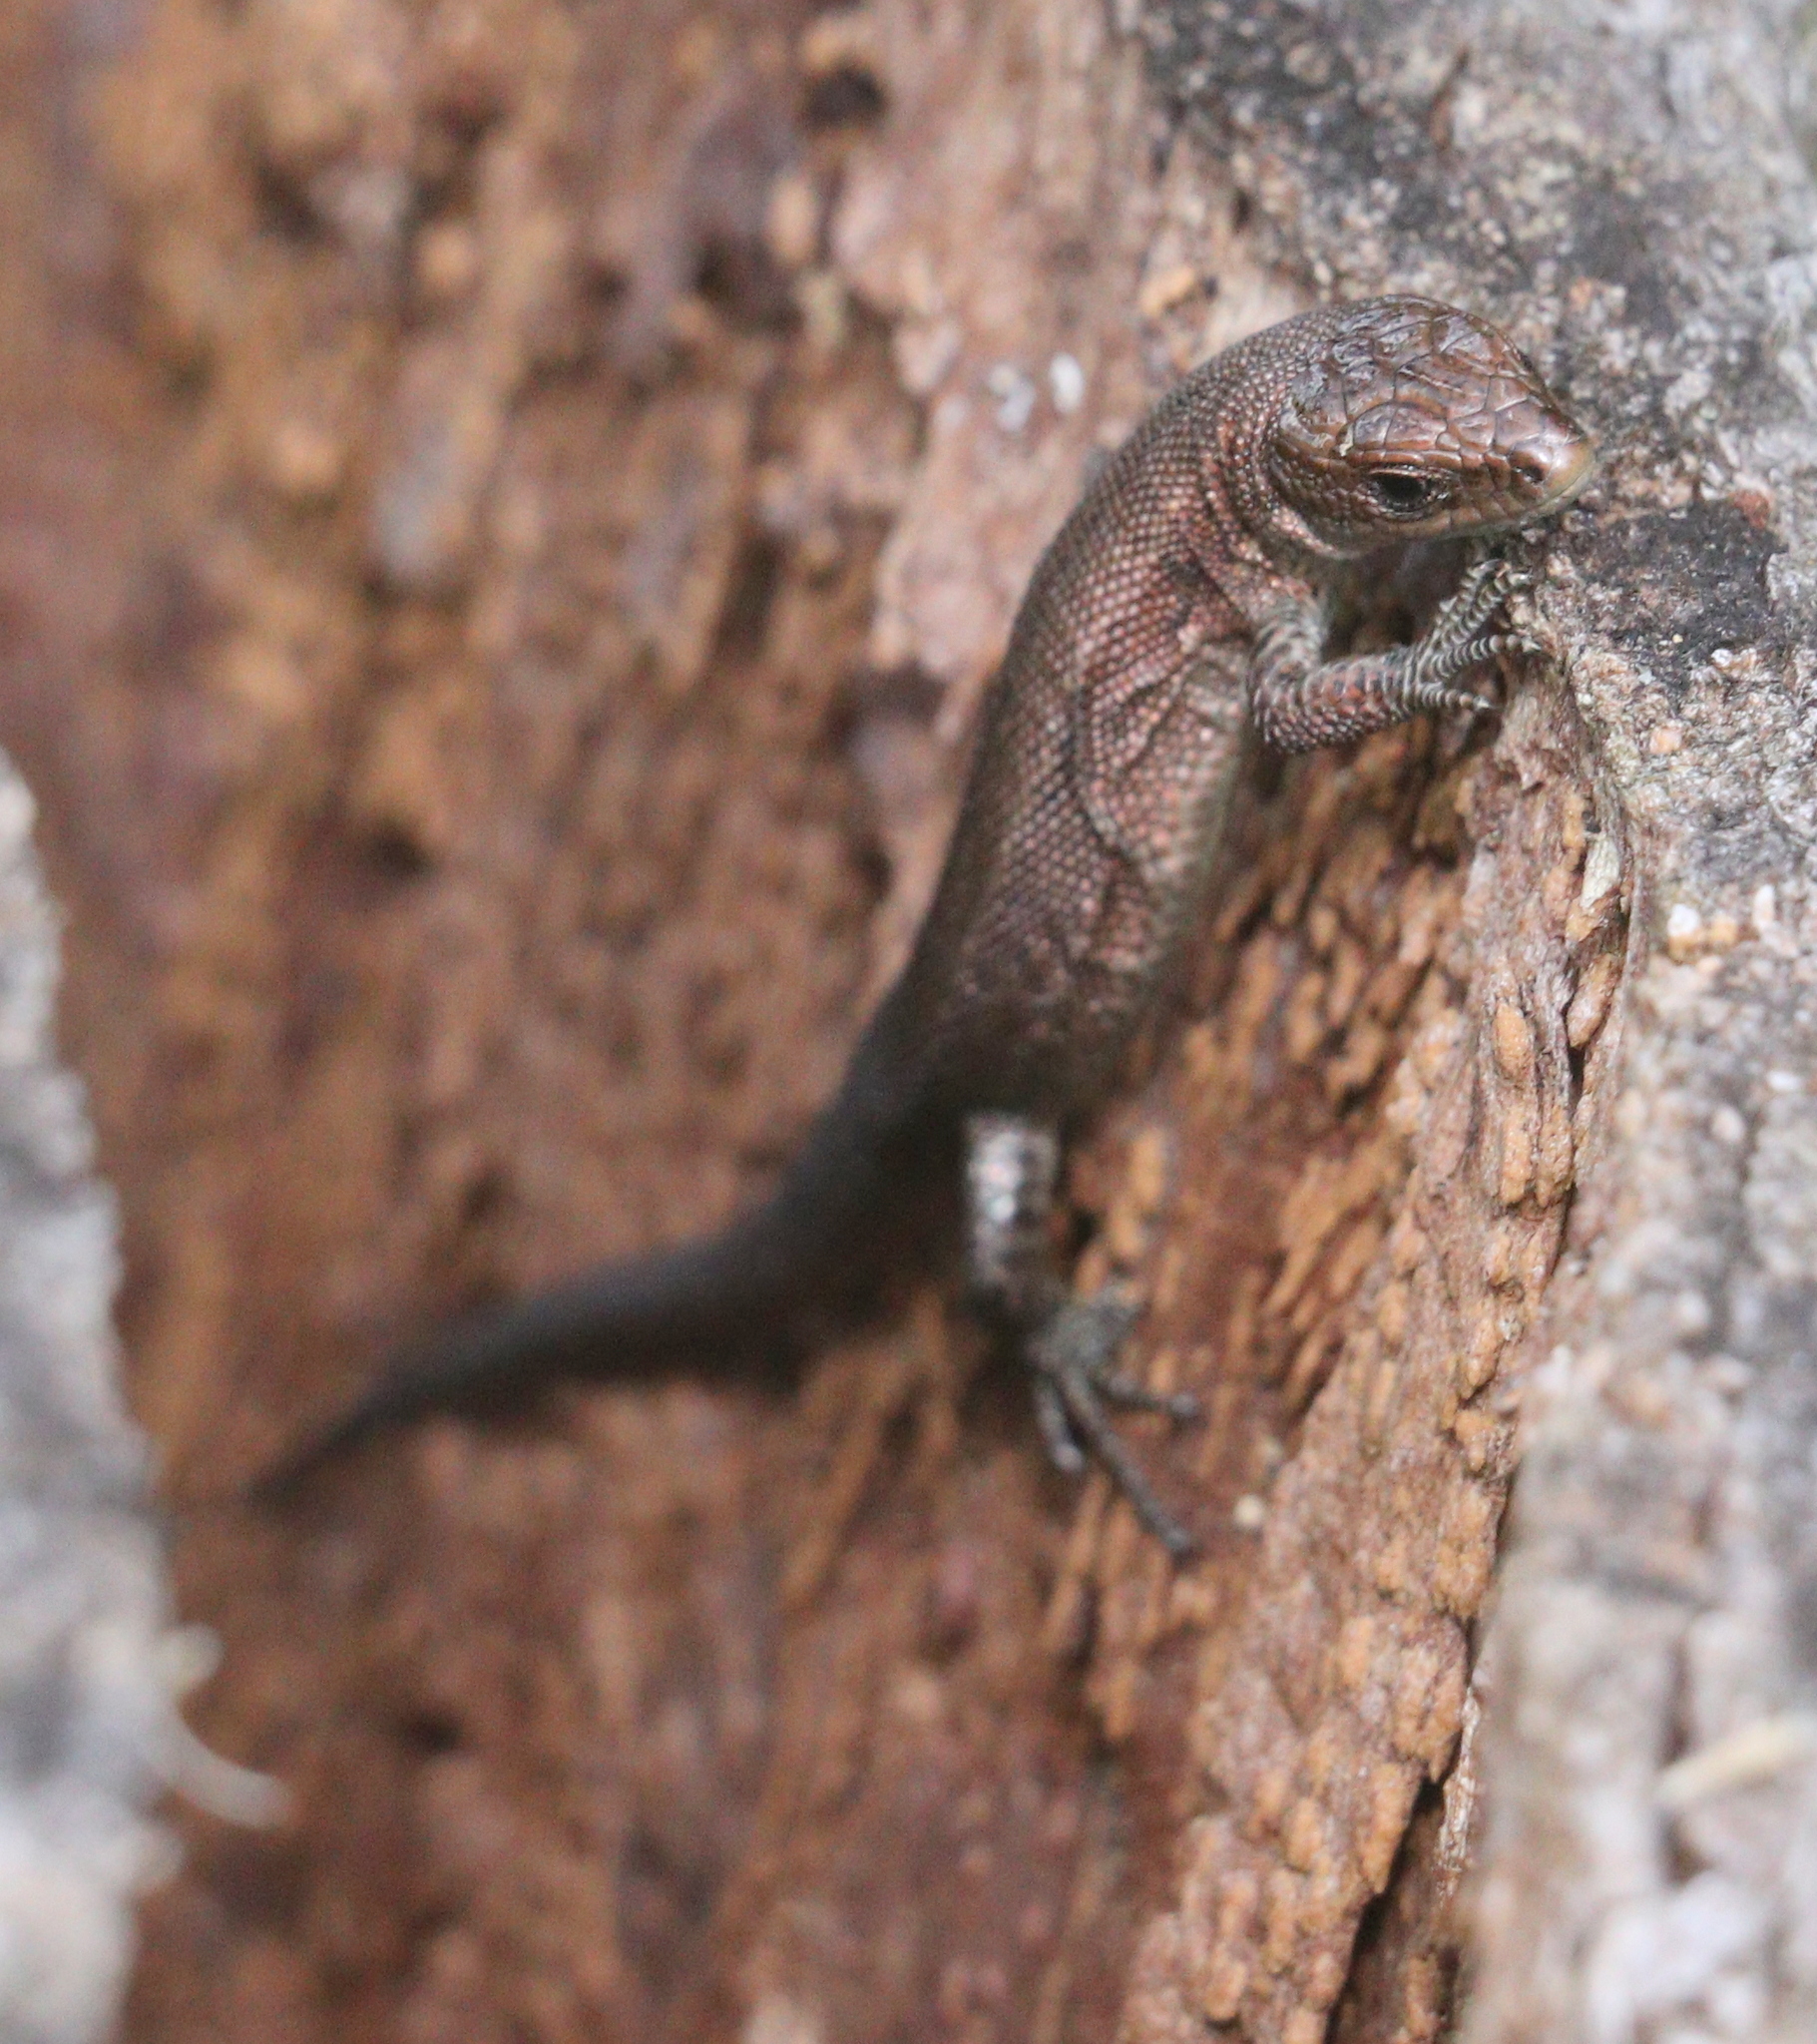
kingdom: Animalia
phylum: Chordata
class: Squamata
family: Lacertidae
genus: Zootoca
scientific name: Zootoca vivipara
